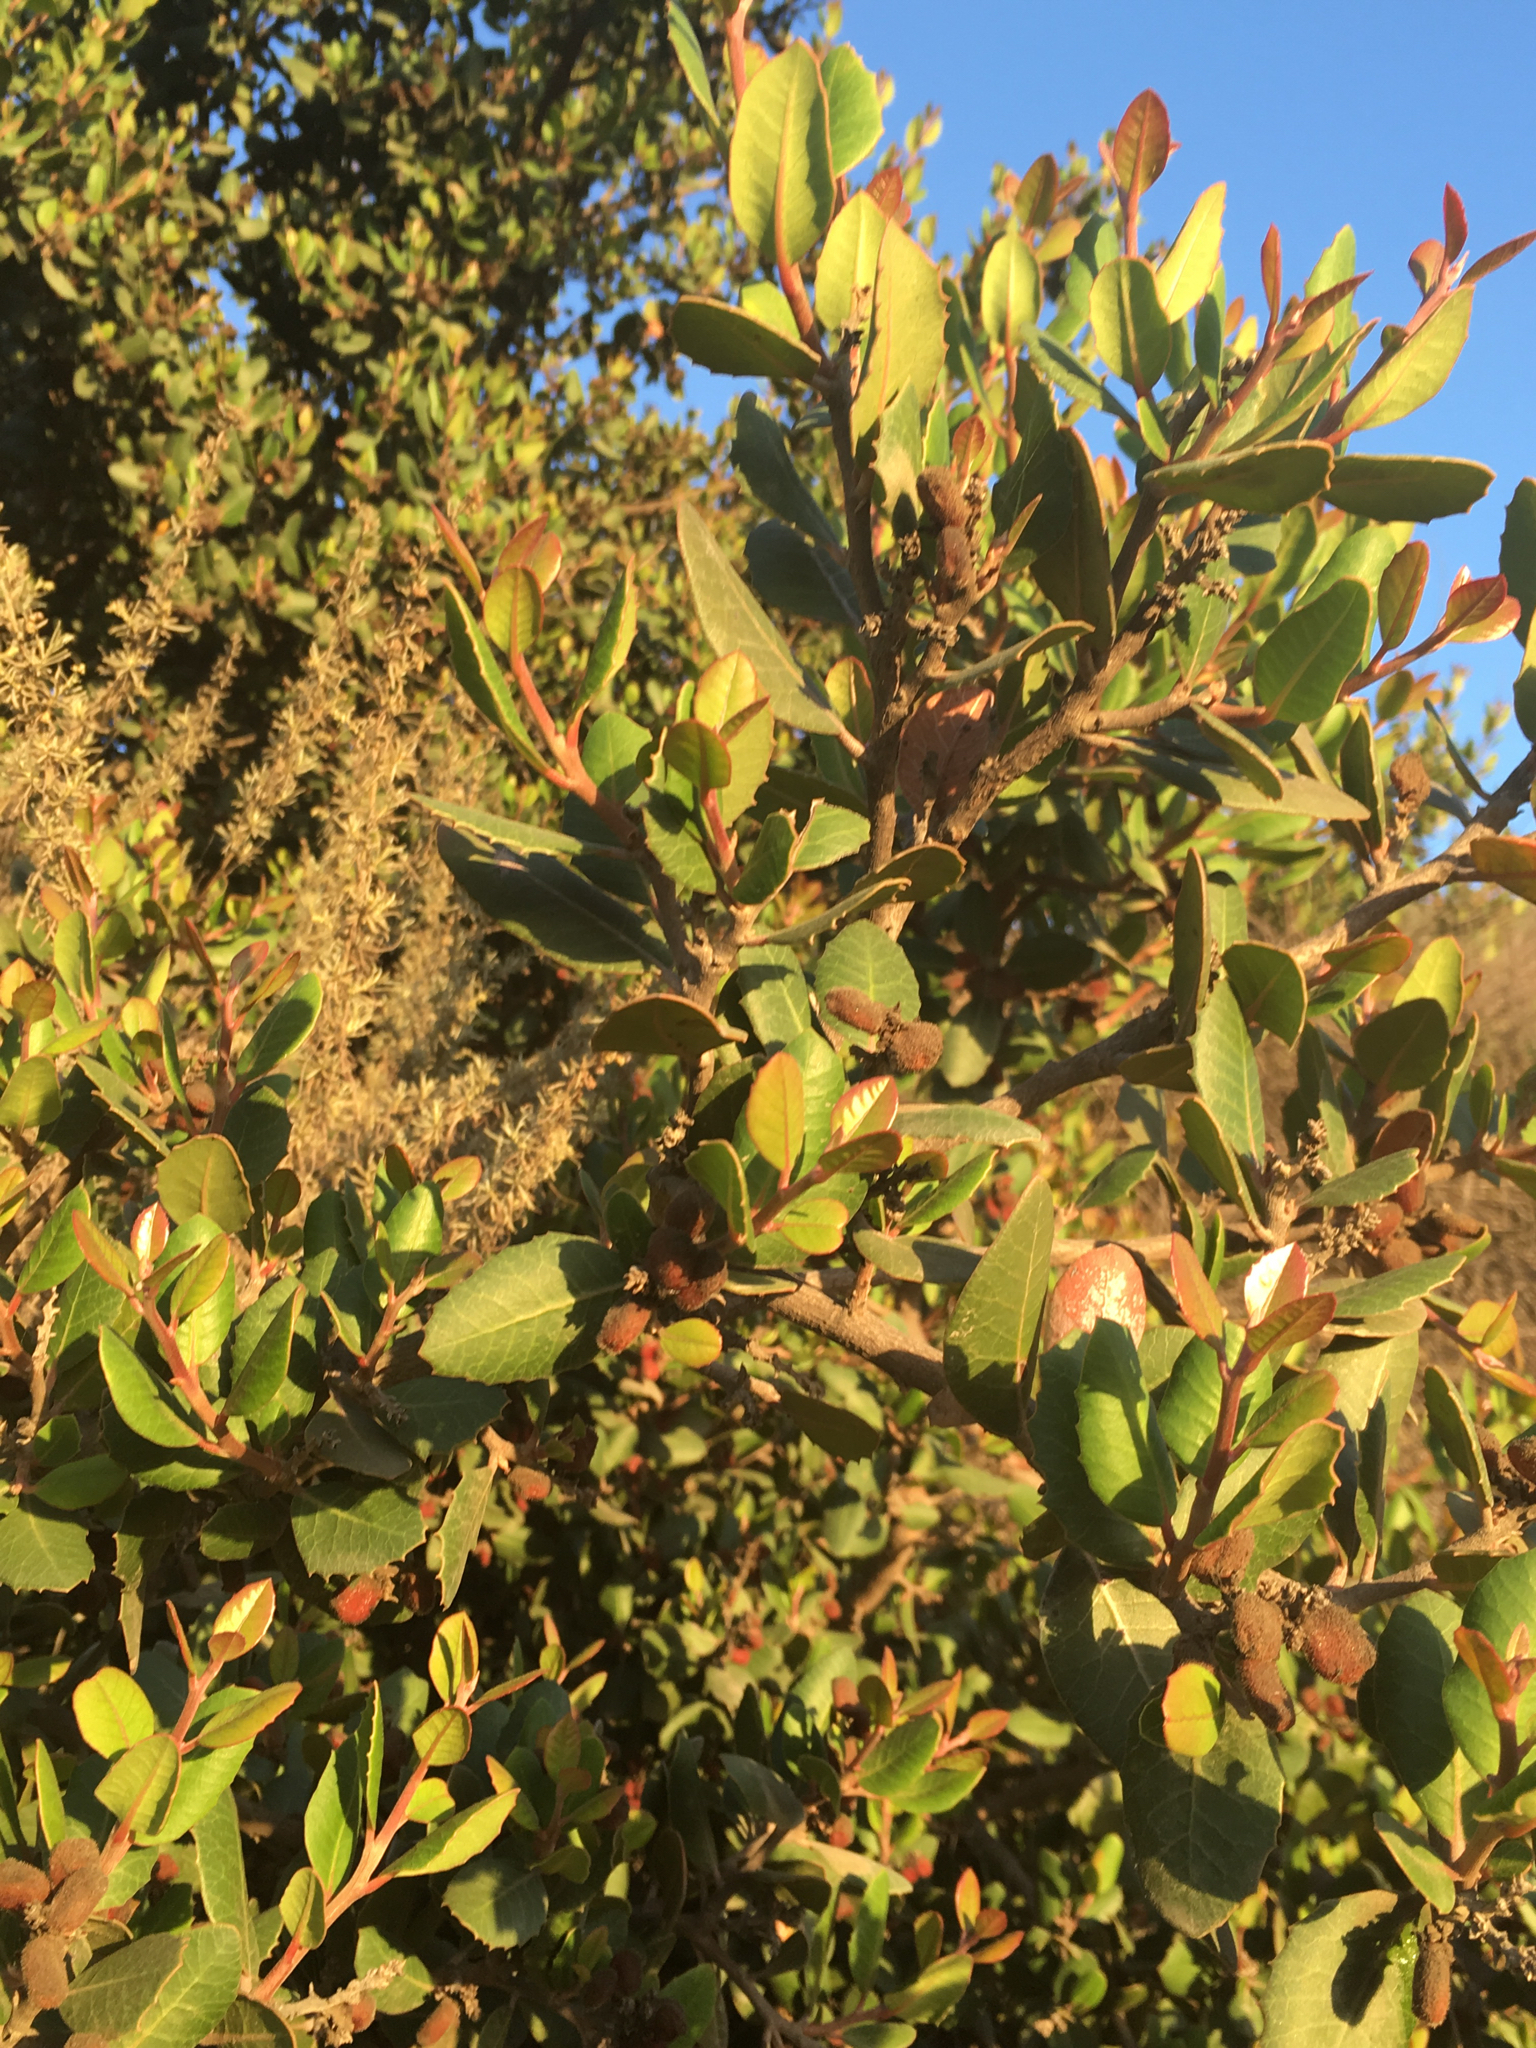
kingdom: Plantae
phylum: Tracheophyta
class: Magnoliopsida
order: Sapindales
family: Anacardiaceae
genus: Rhus
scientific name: Rhus integrifolia
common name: Lemonade sumac
